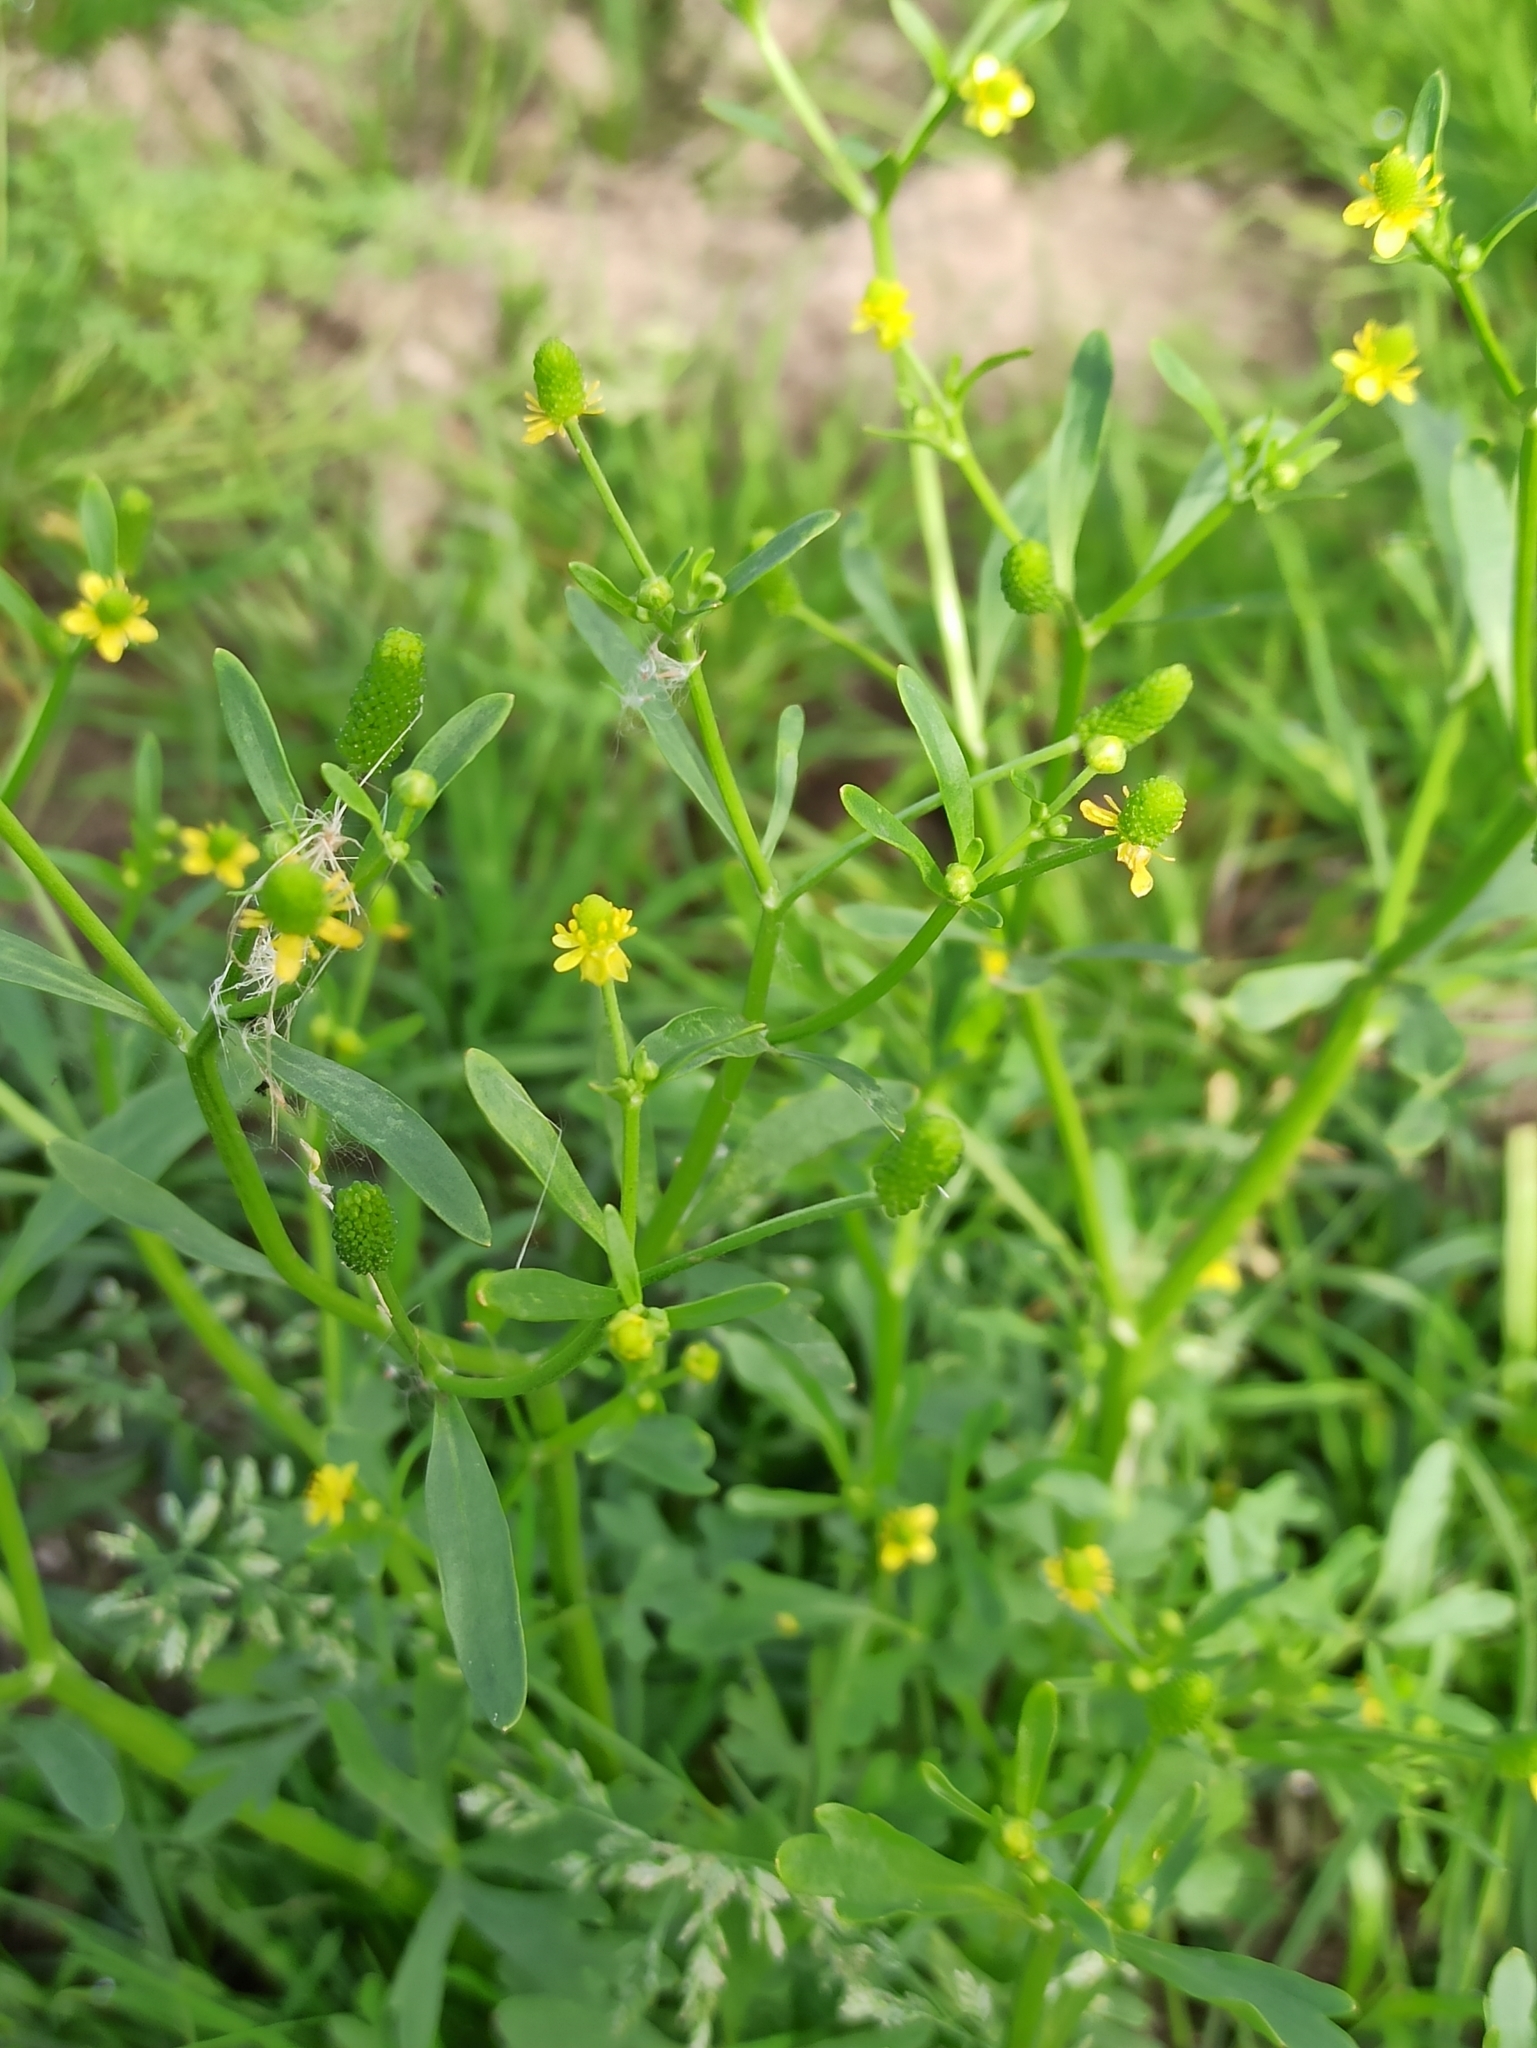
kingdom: Plantae
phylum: Tracheophyta
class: Magnoliopsida
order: Ranunculales
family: Ranunculaceae
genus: Ranunculus
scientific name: Ranunculus sceleratus
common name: Celery-leaved buttercup
